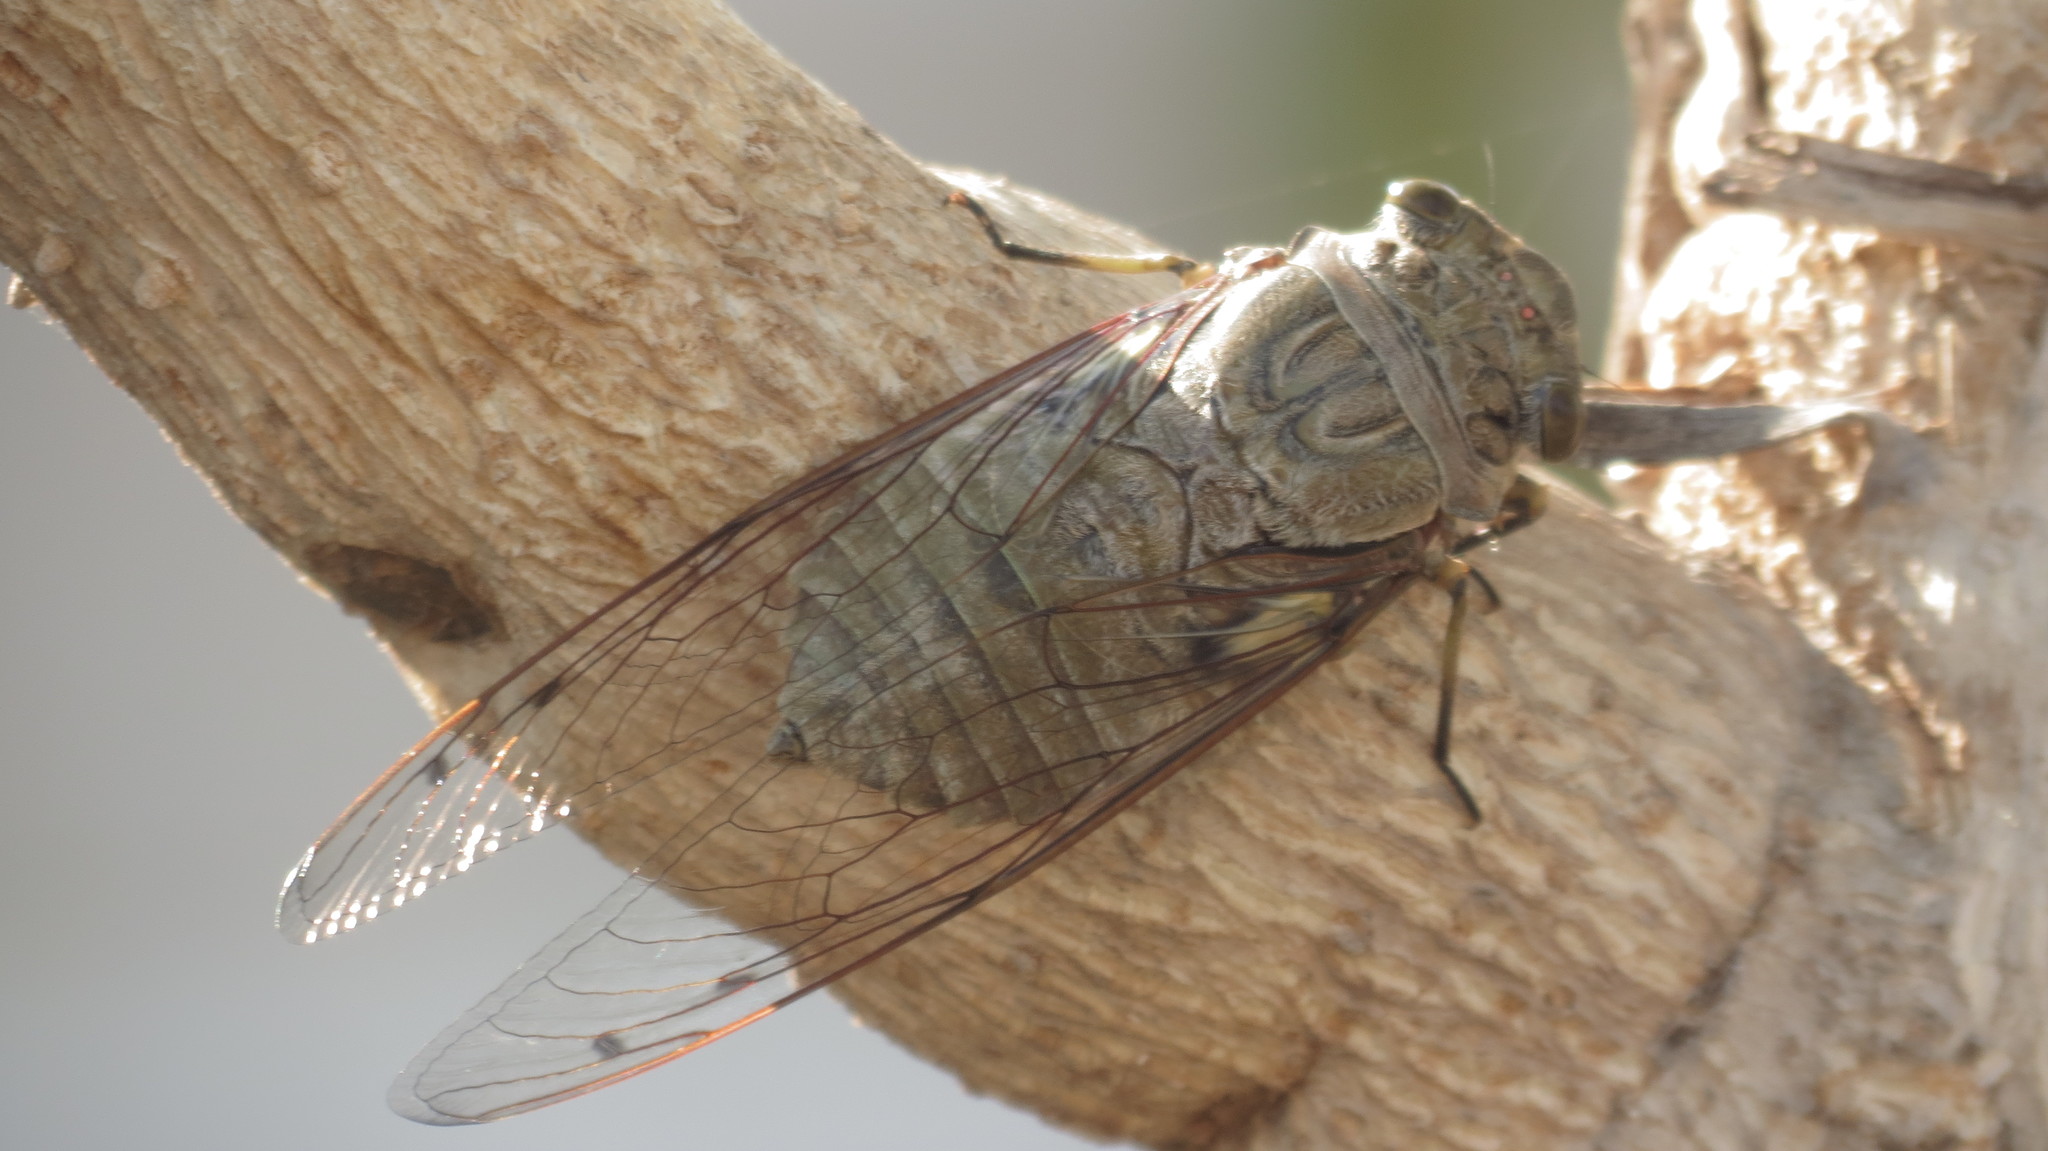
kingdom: Animalia
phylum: Arthropoda
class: Insecta
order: Hemiptera
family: Cicadidae
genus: Quesada
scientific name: Quesada gigas
